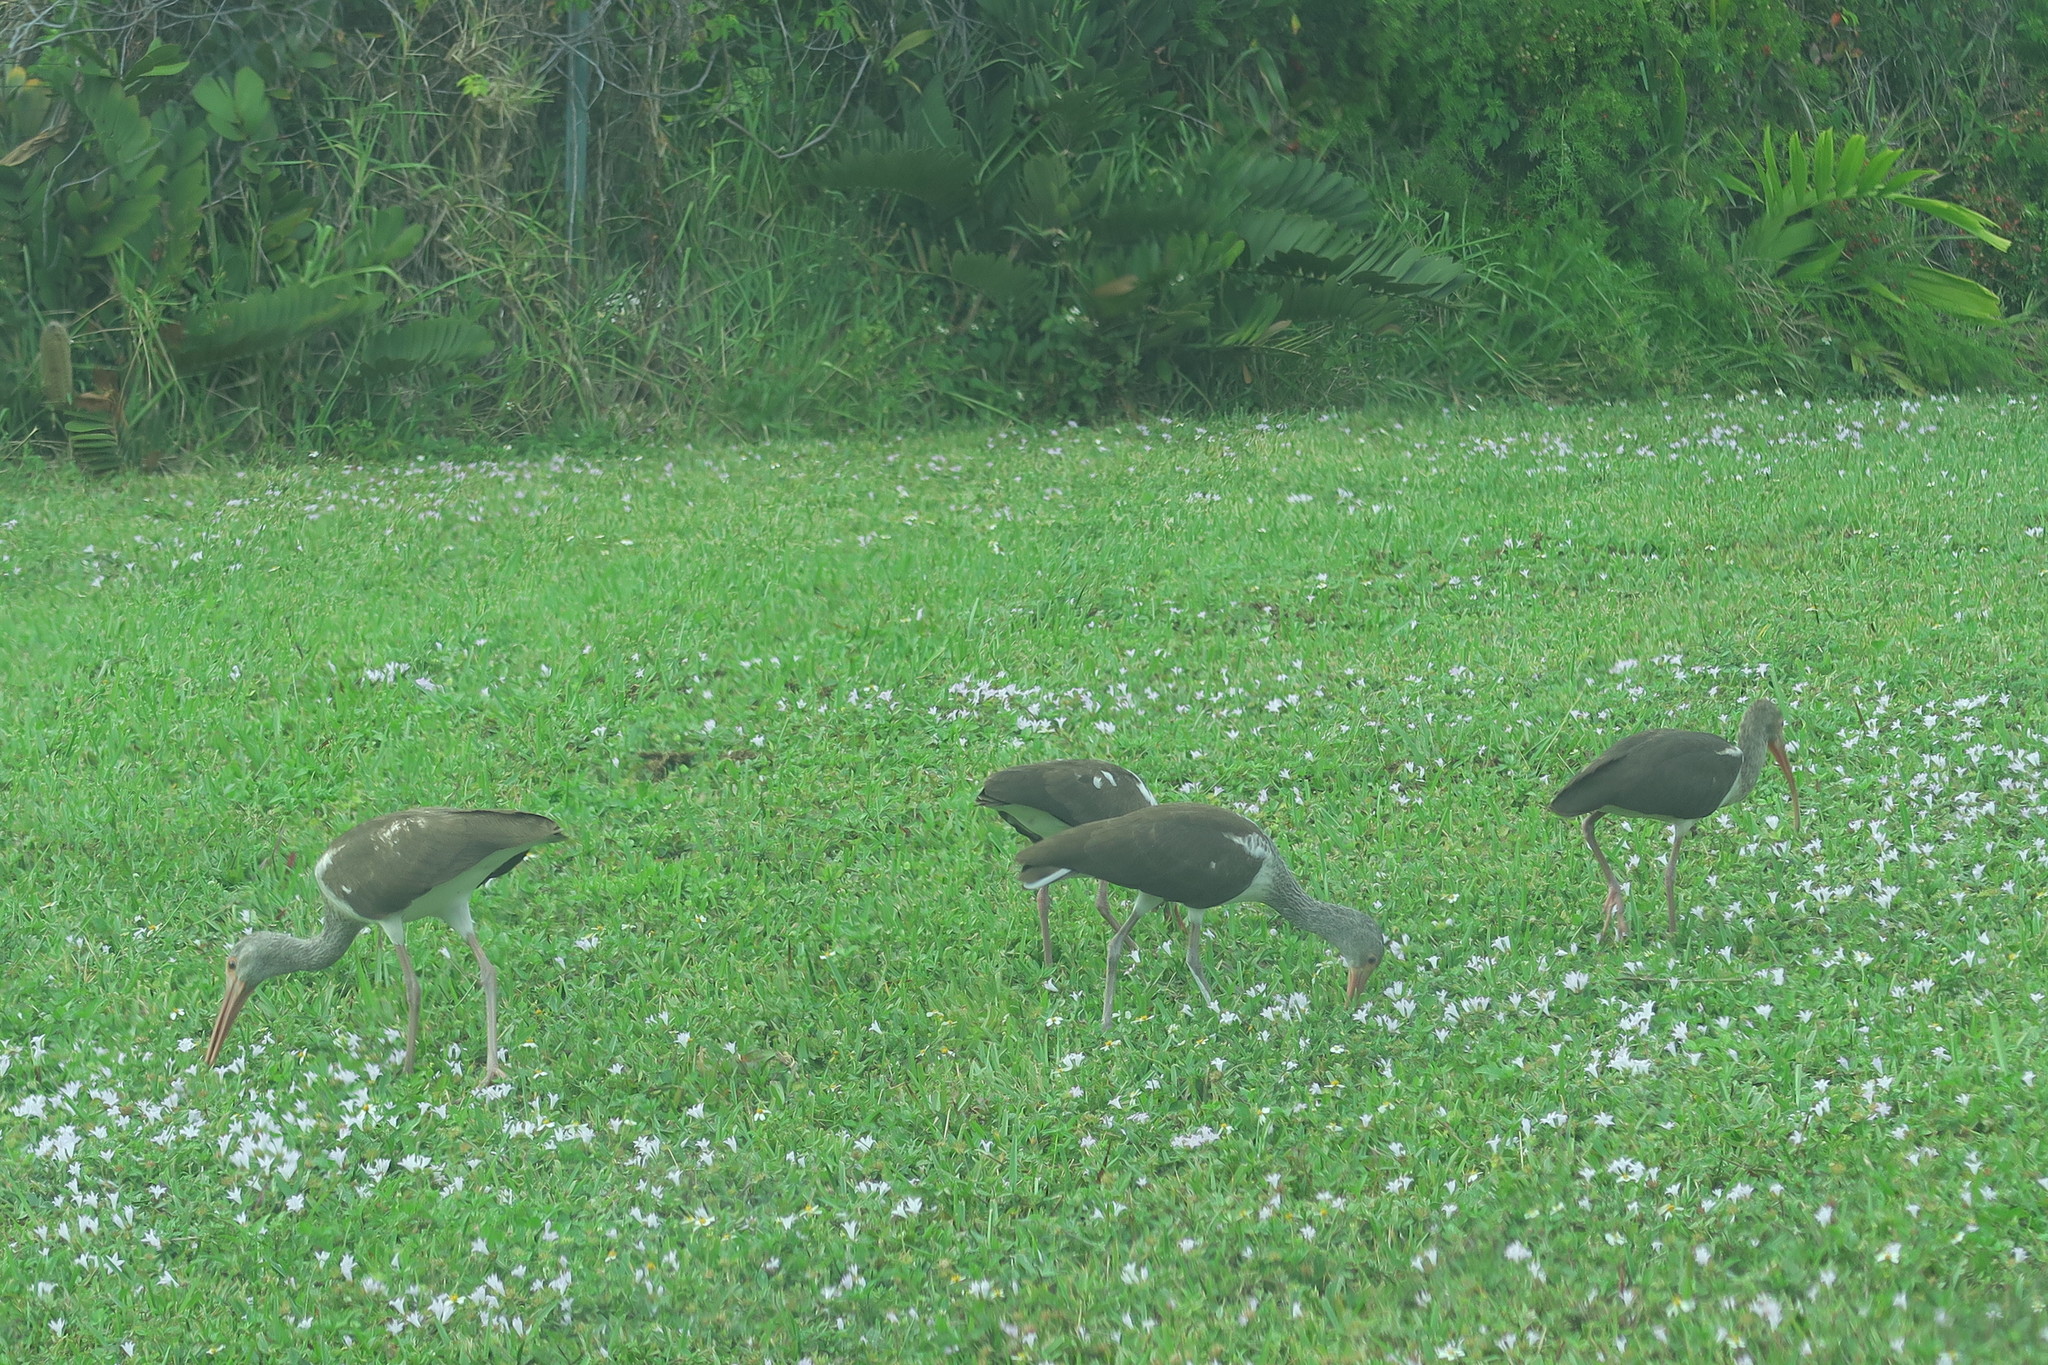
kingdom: Animalia
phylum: Chordata
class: Aves
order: Pelecaniformes
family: Threskiornithidae
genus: Eudocimus
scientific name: Eudocimus albus
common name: White ibis
